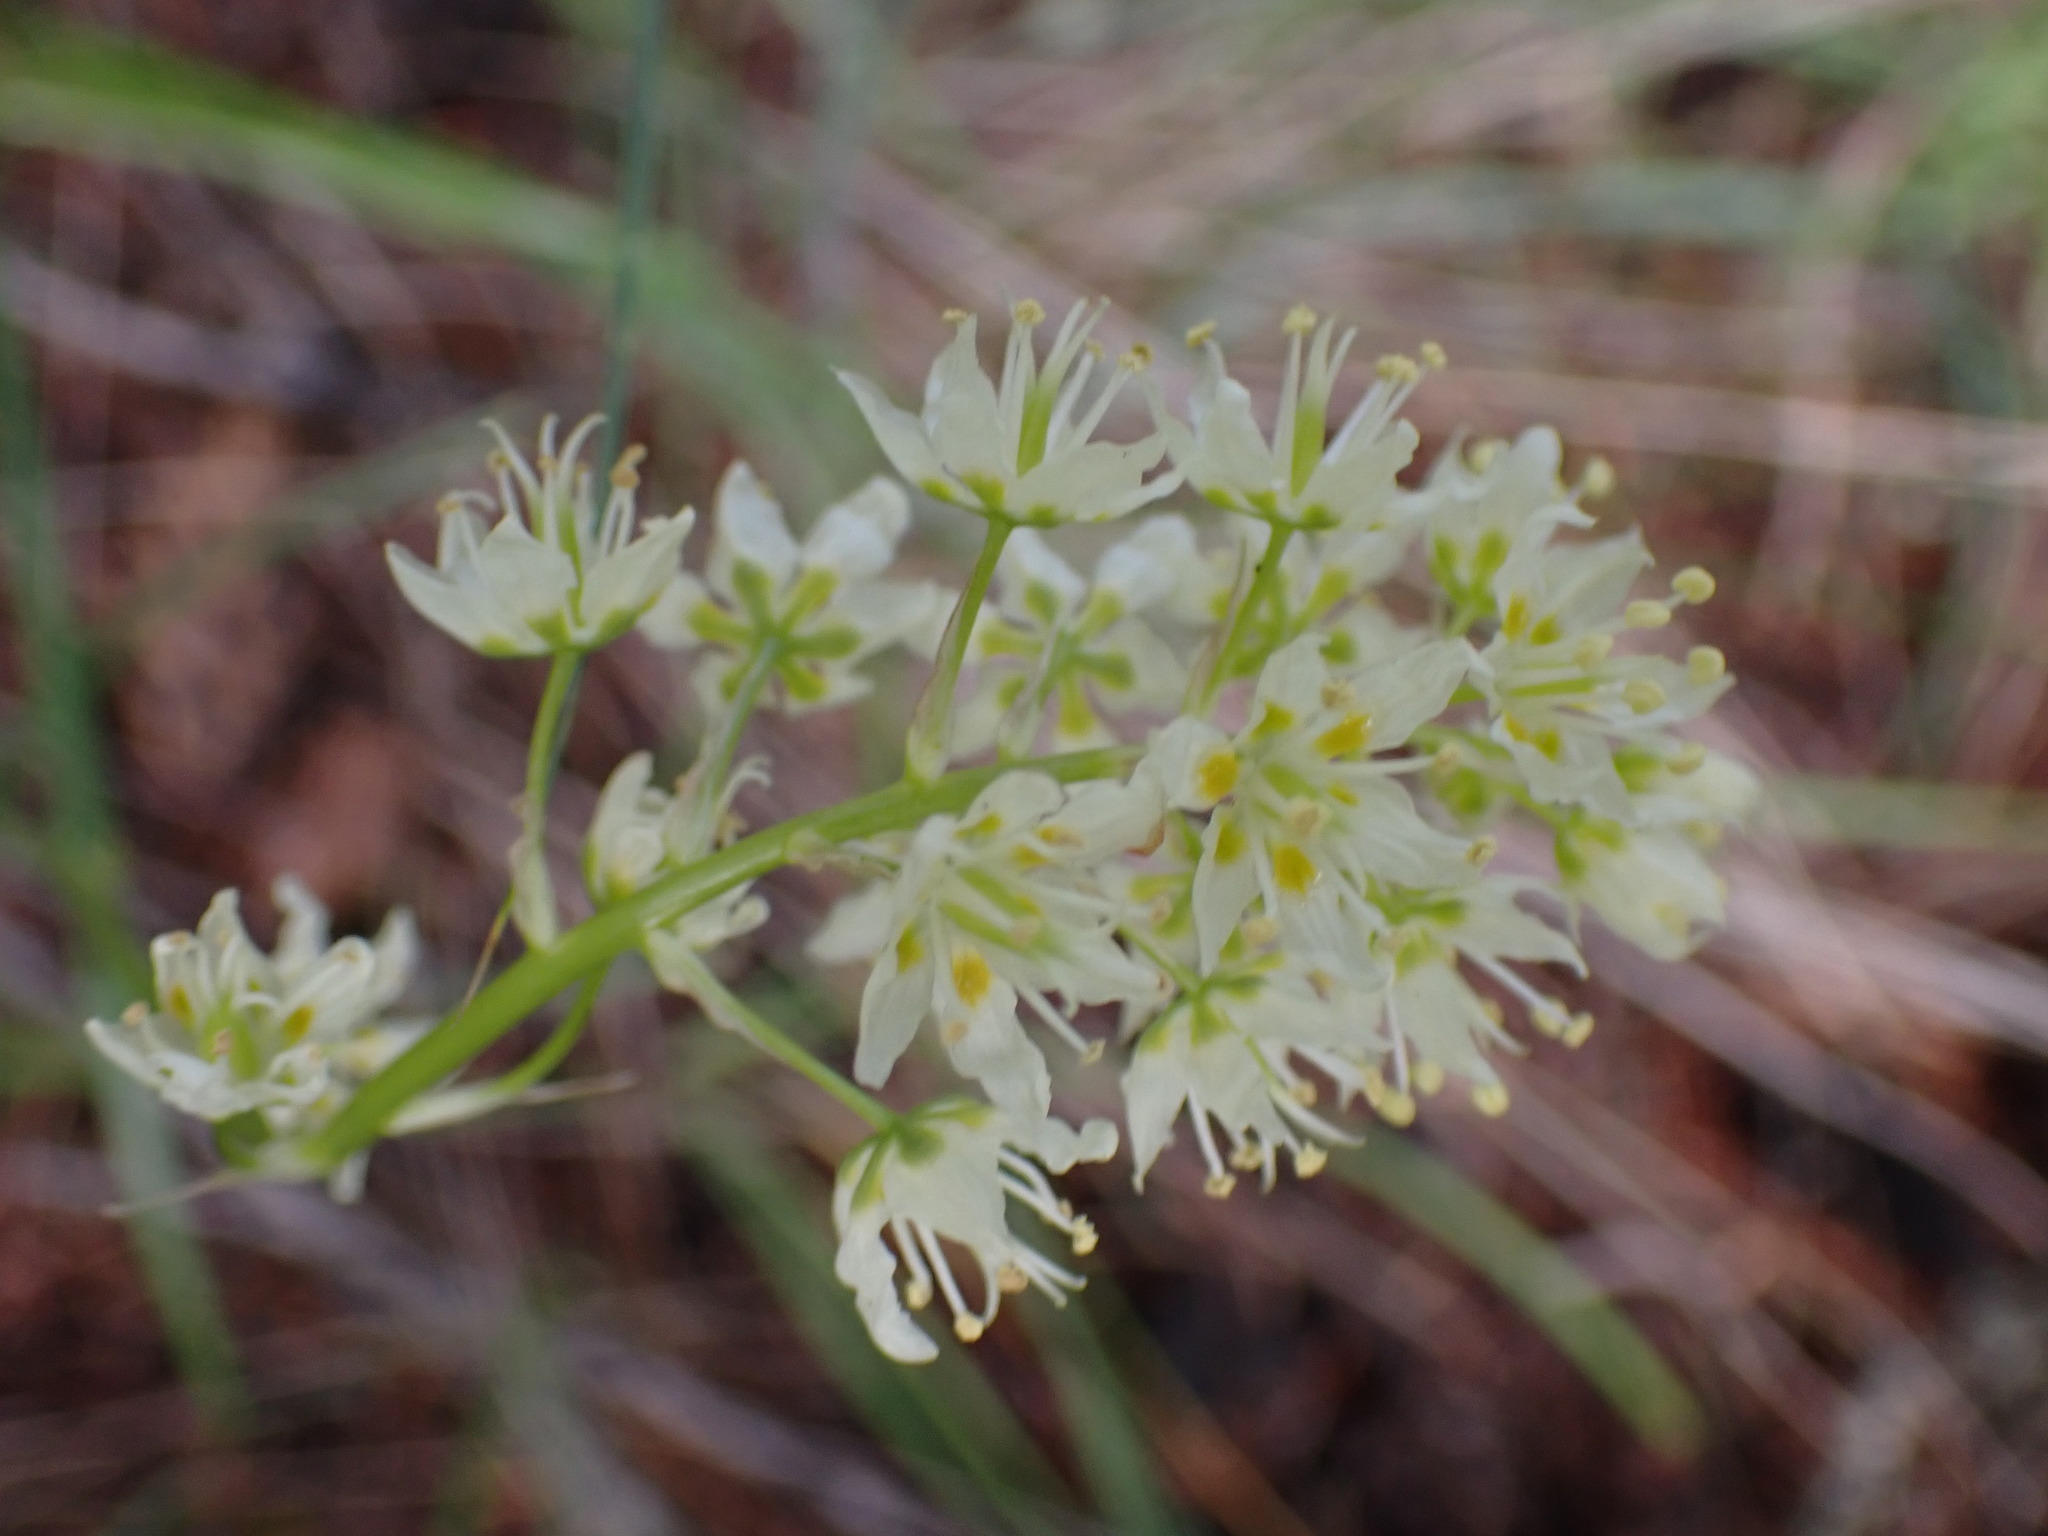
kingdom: Plantae
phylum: Tracheophyta
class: Liliopsida
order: Liliales
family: Melanthiaceae
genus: Toxicoscordion
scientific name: Toxicoscordion venenosum
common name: Meadow death camas
